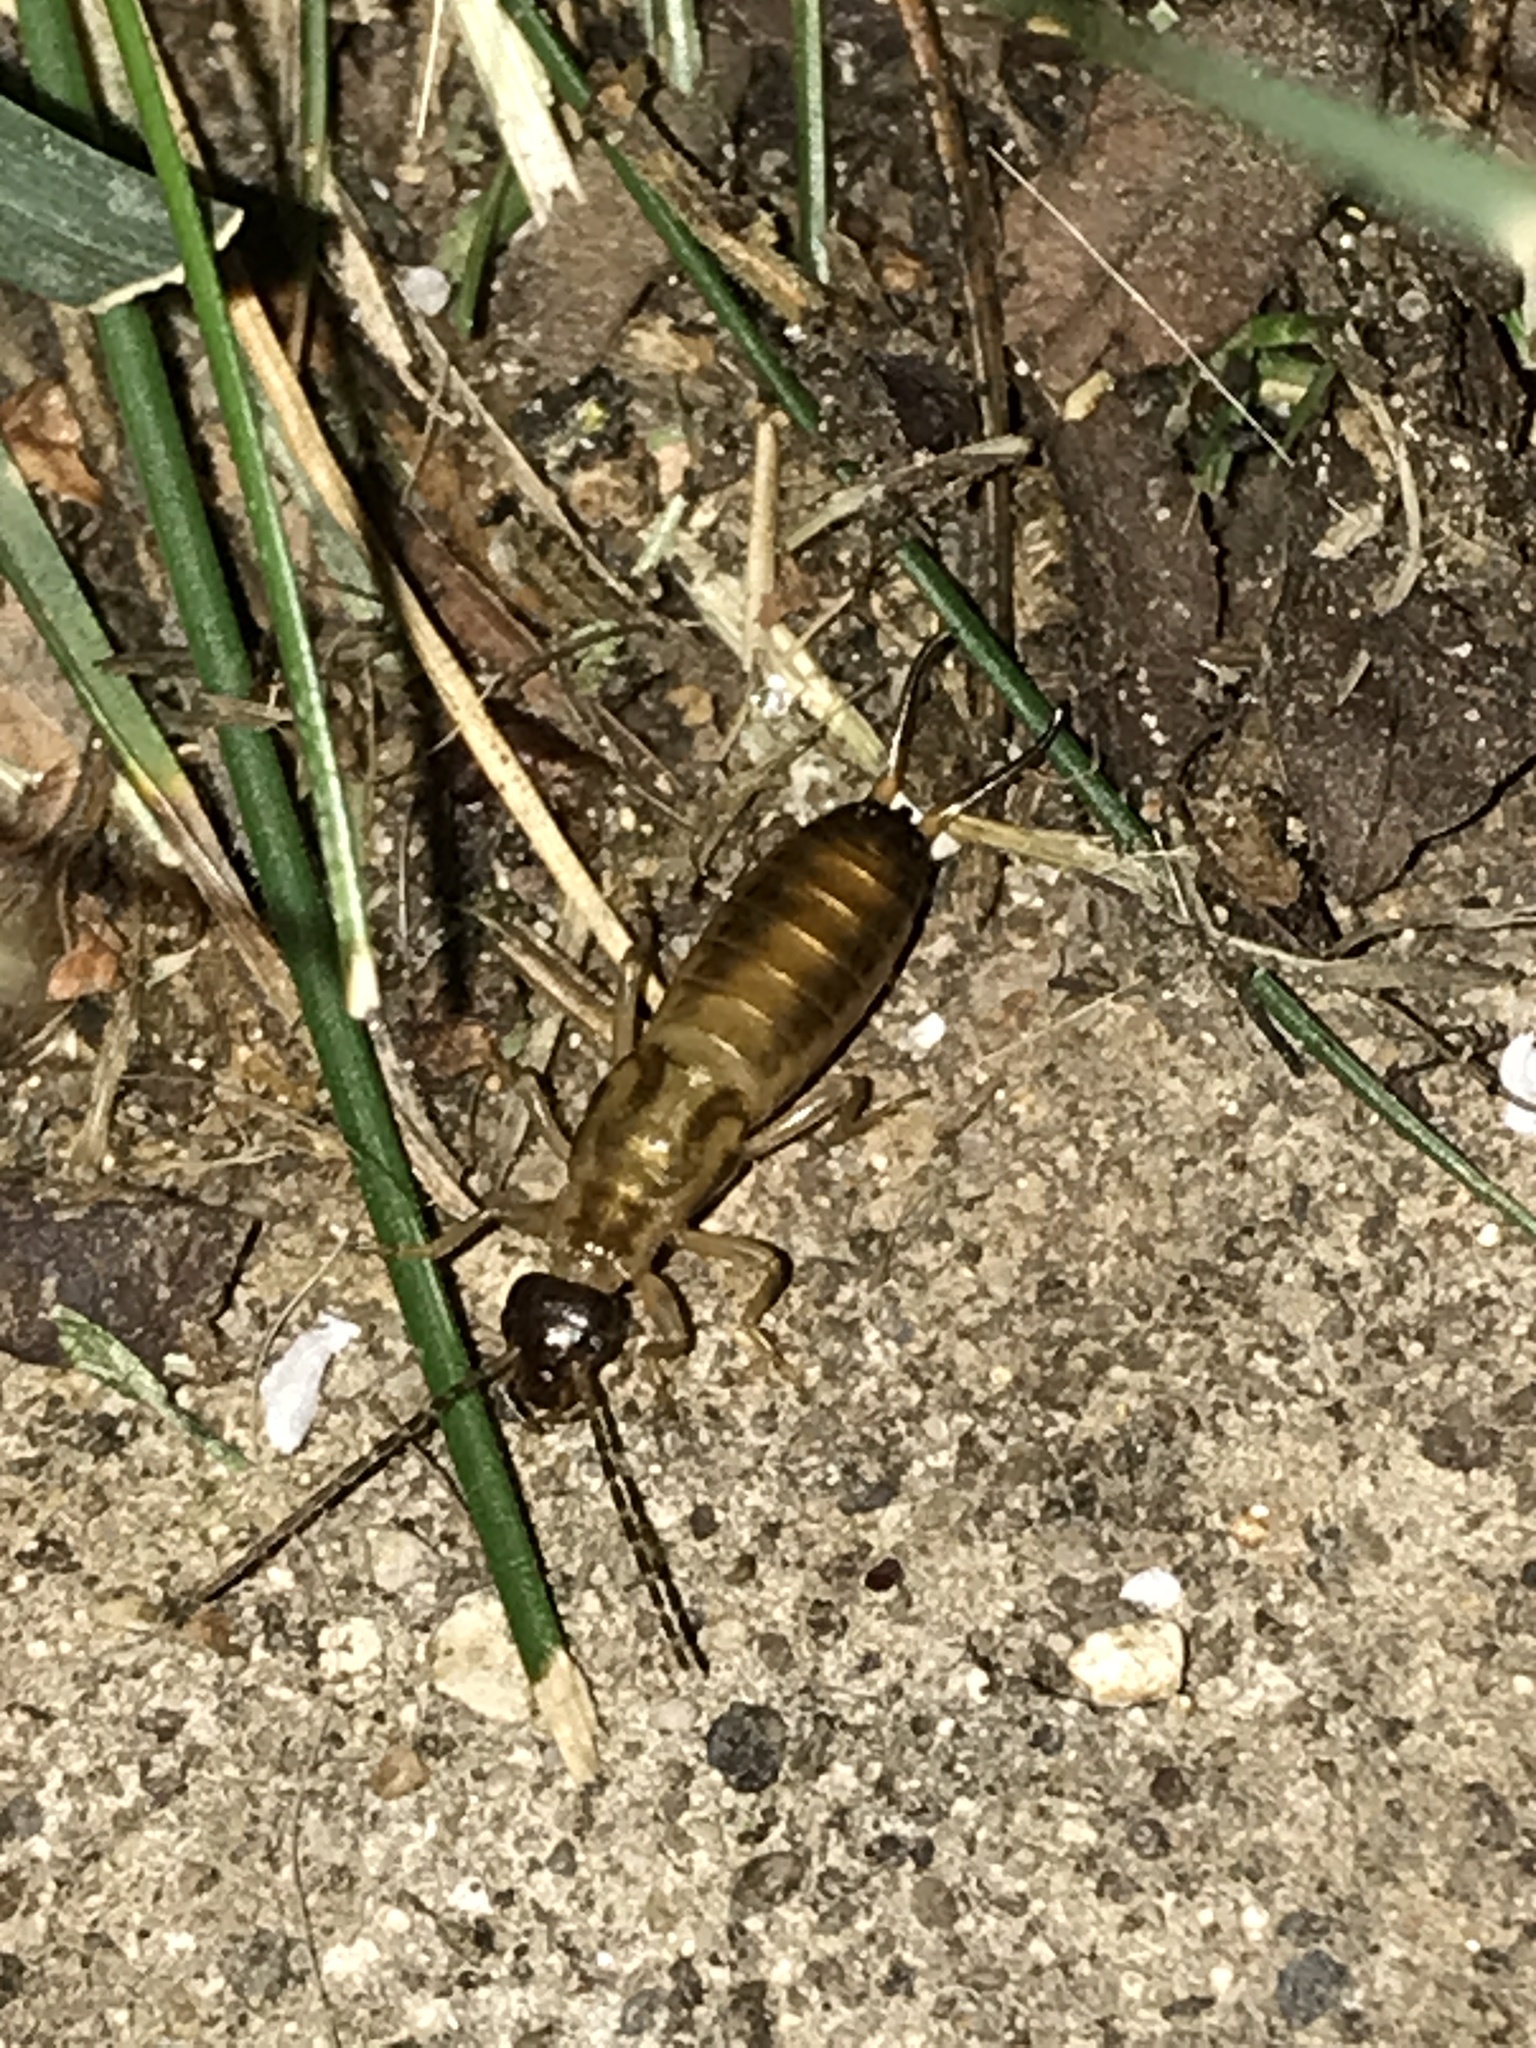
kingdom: Animalia
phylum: Arthropoda
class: Insecta
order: Dermaptera
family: Forficulidae
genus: Forficula
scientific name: Forficula
